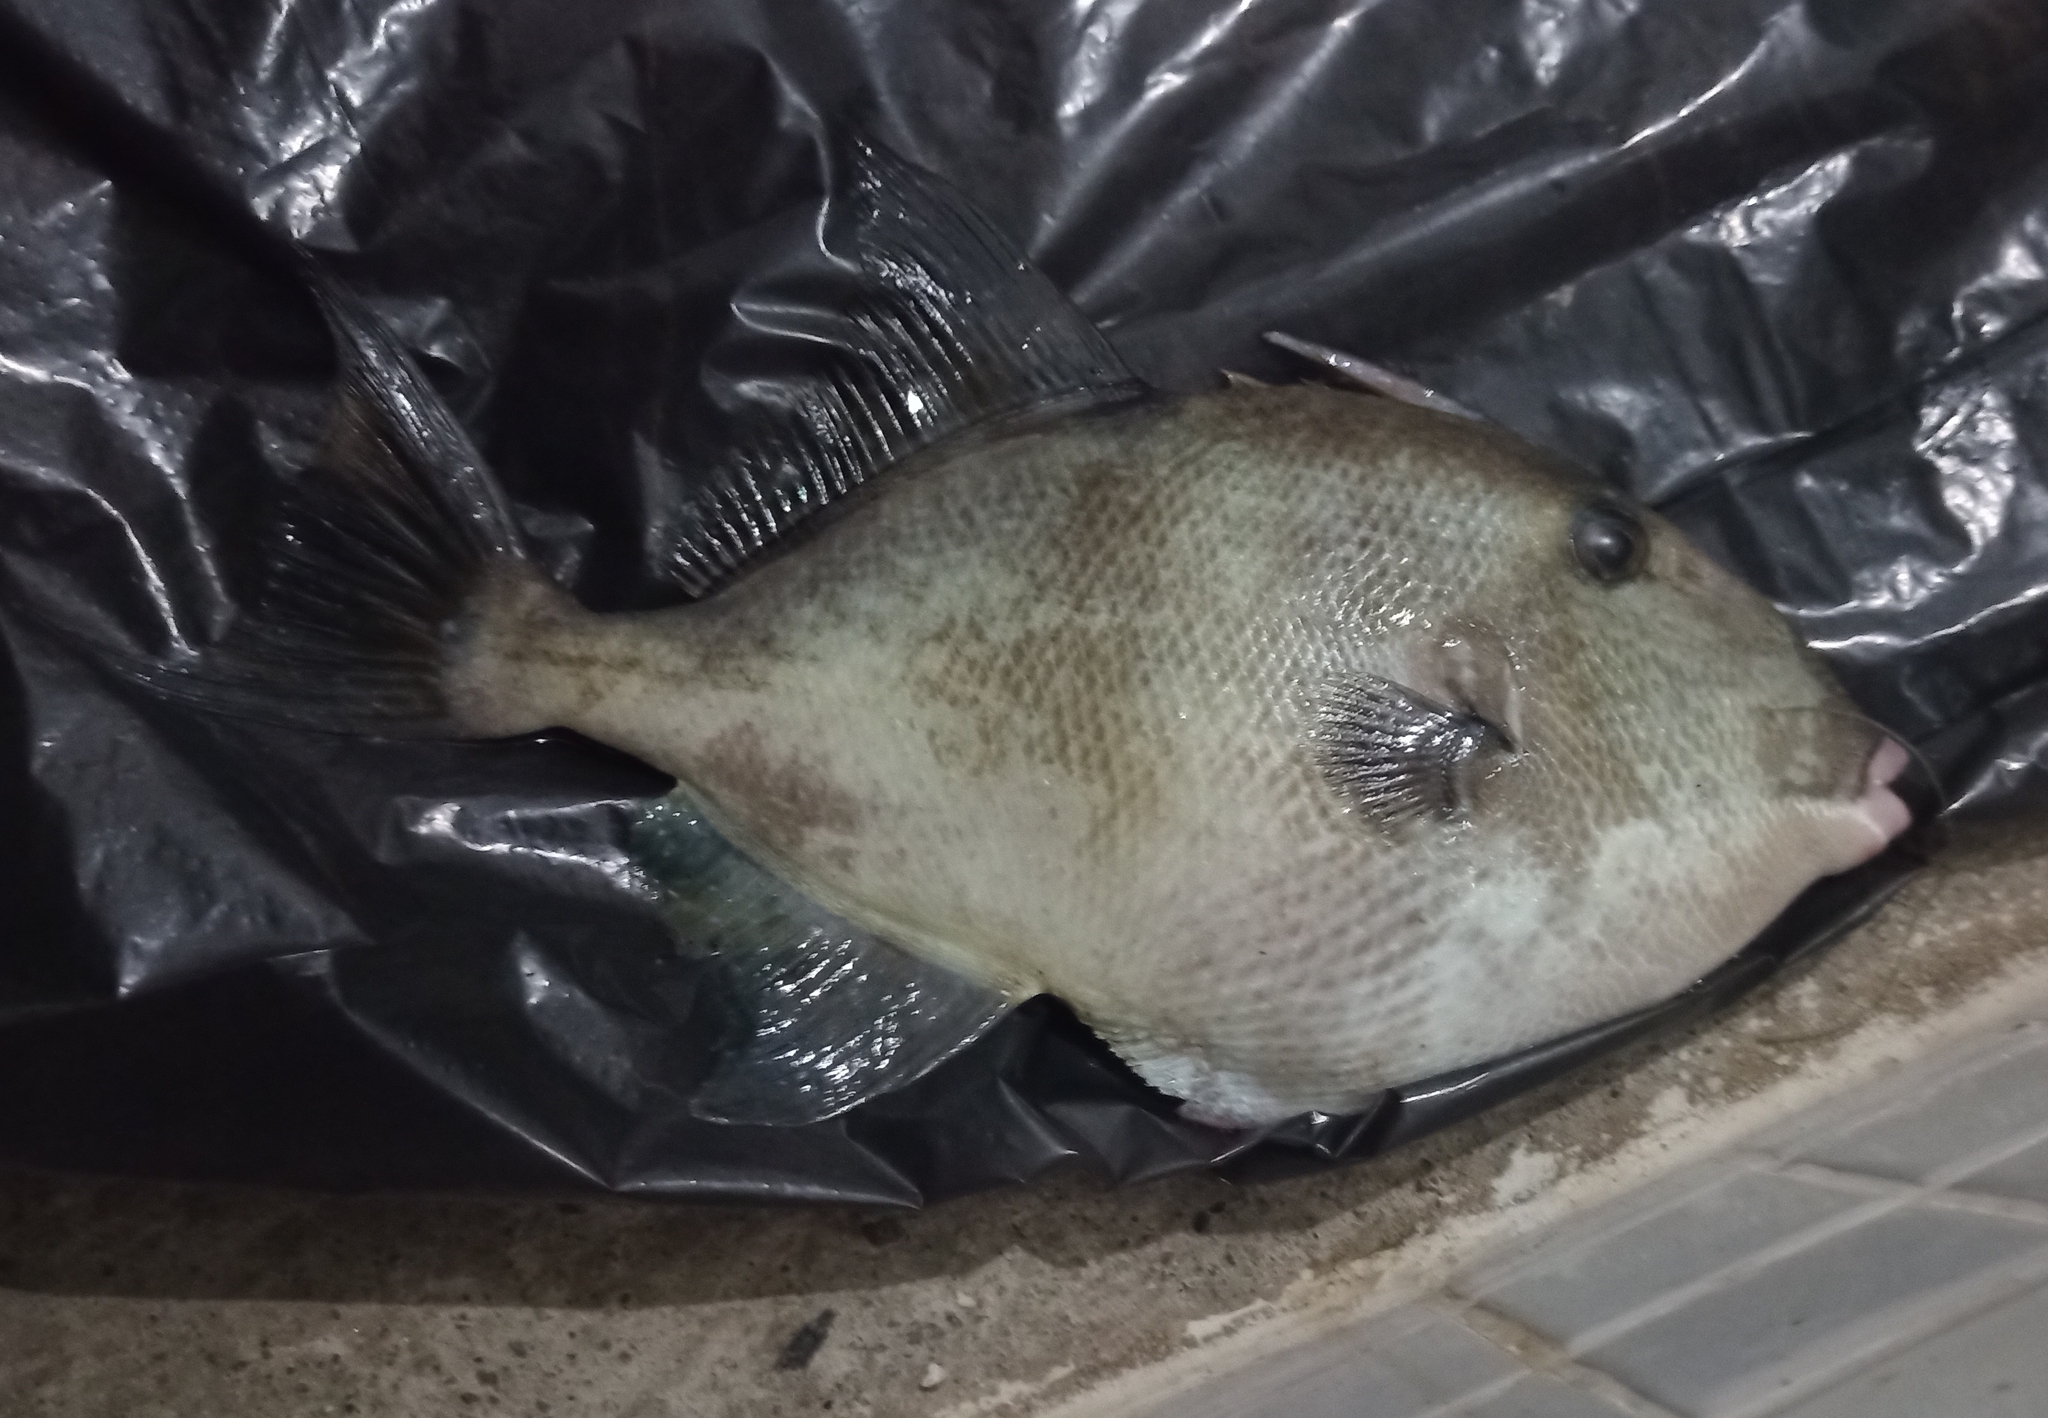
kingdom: Animalia
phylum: Chordata
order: Tetraodontiformes
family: Balistidae
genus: Balistes
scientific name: Balistes capriscus
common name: Grey triggerfish
